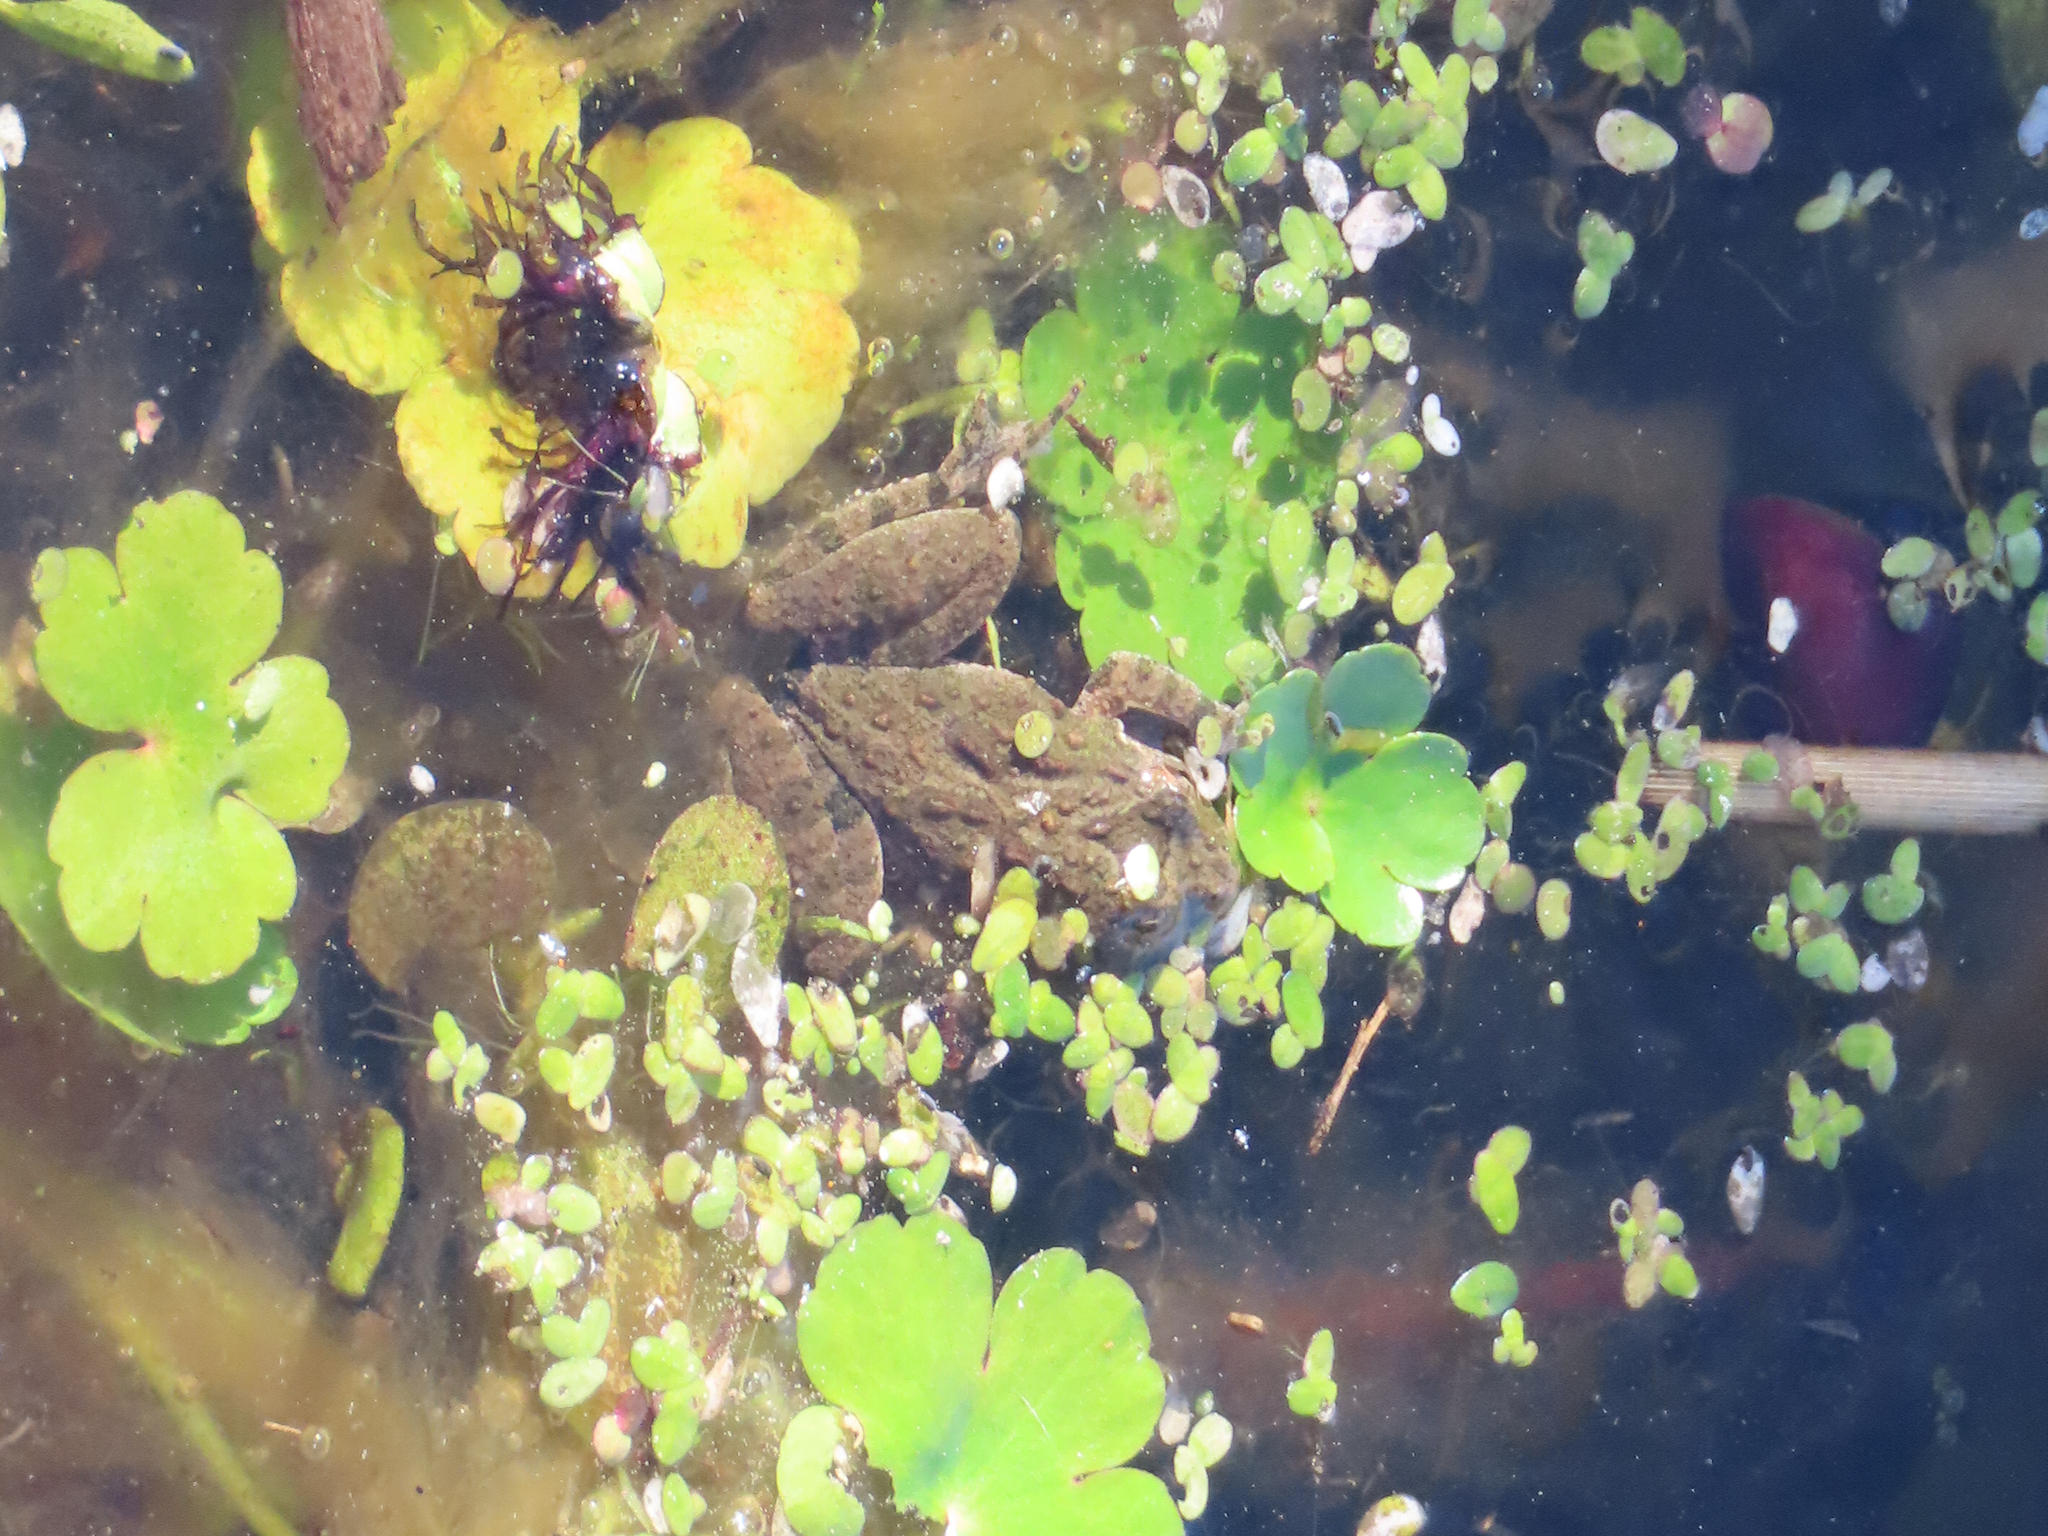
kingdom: Animalia
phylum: Chordata
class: Amphibia
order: Anura
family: Hylidae
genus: Acris
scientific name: Acris crepitans
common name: Northern cricket frog
